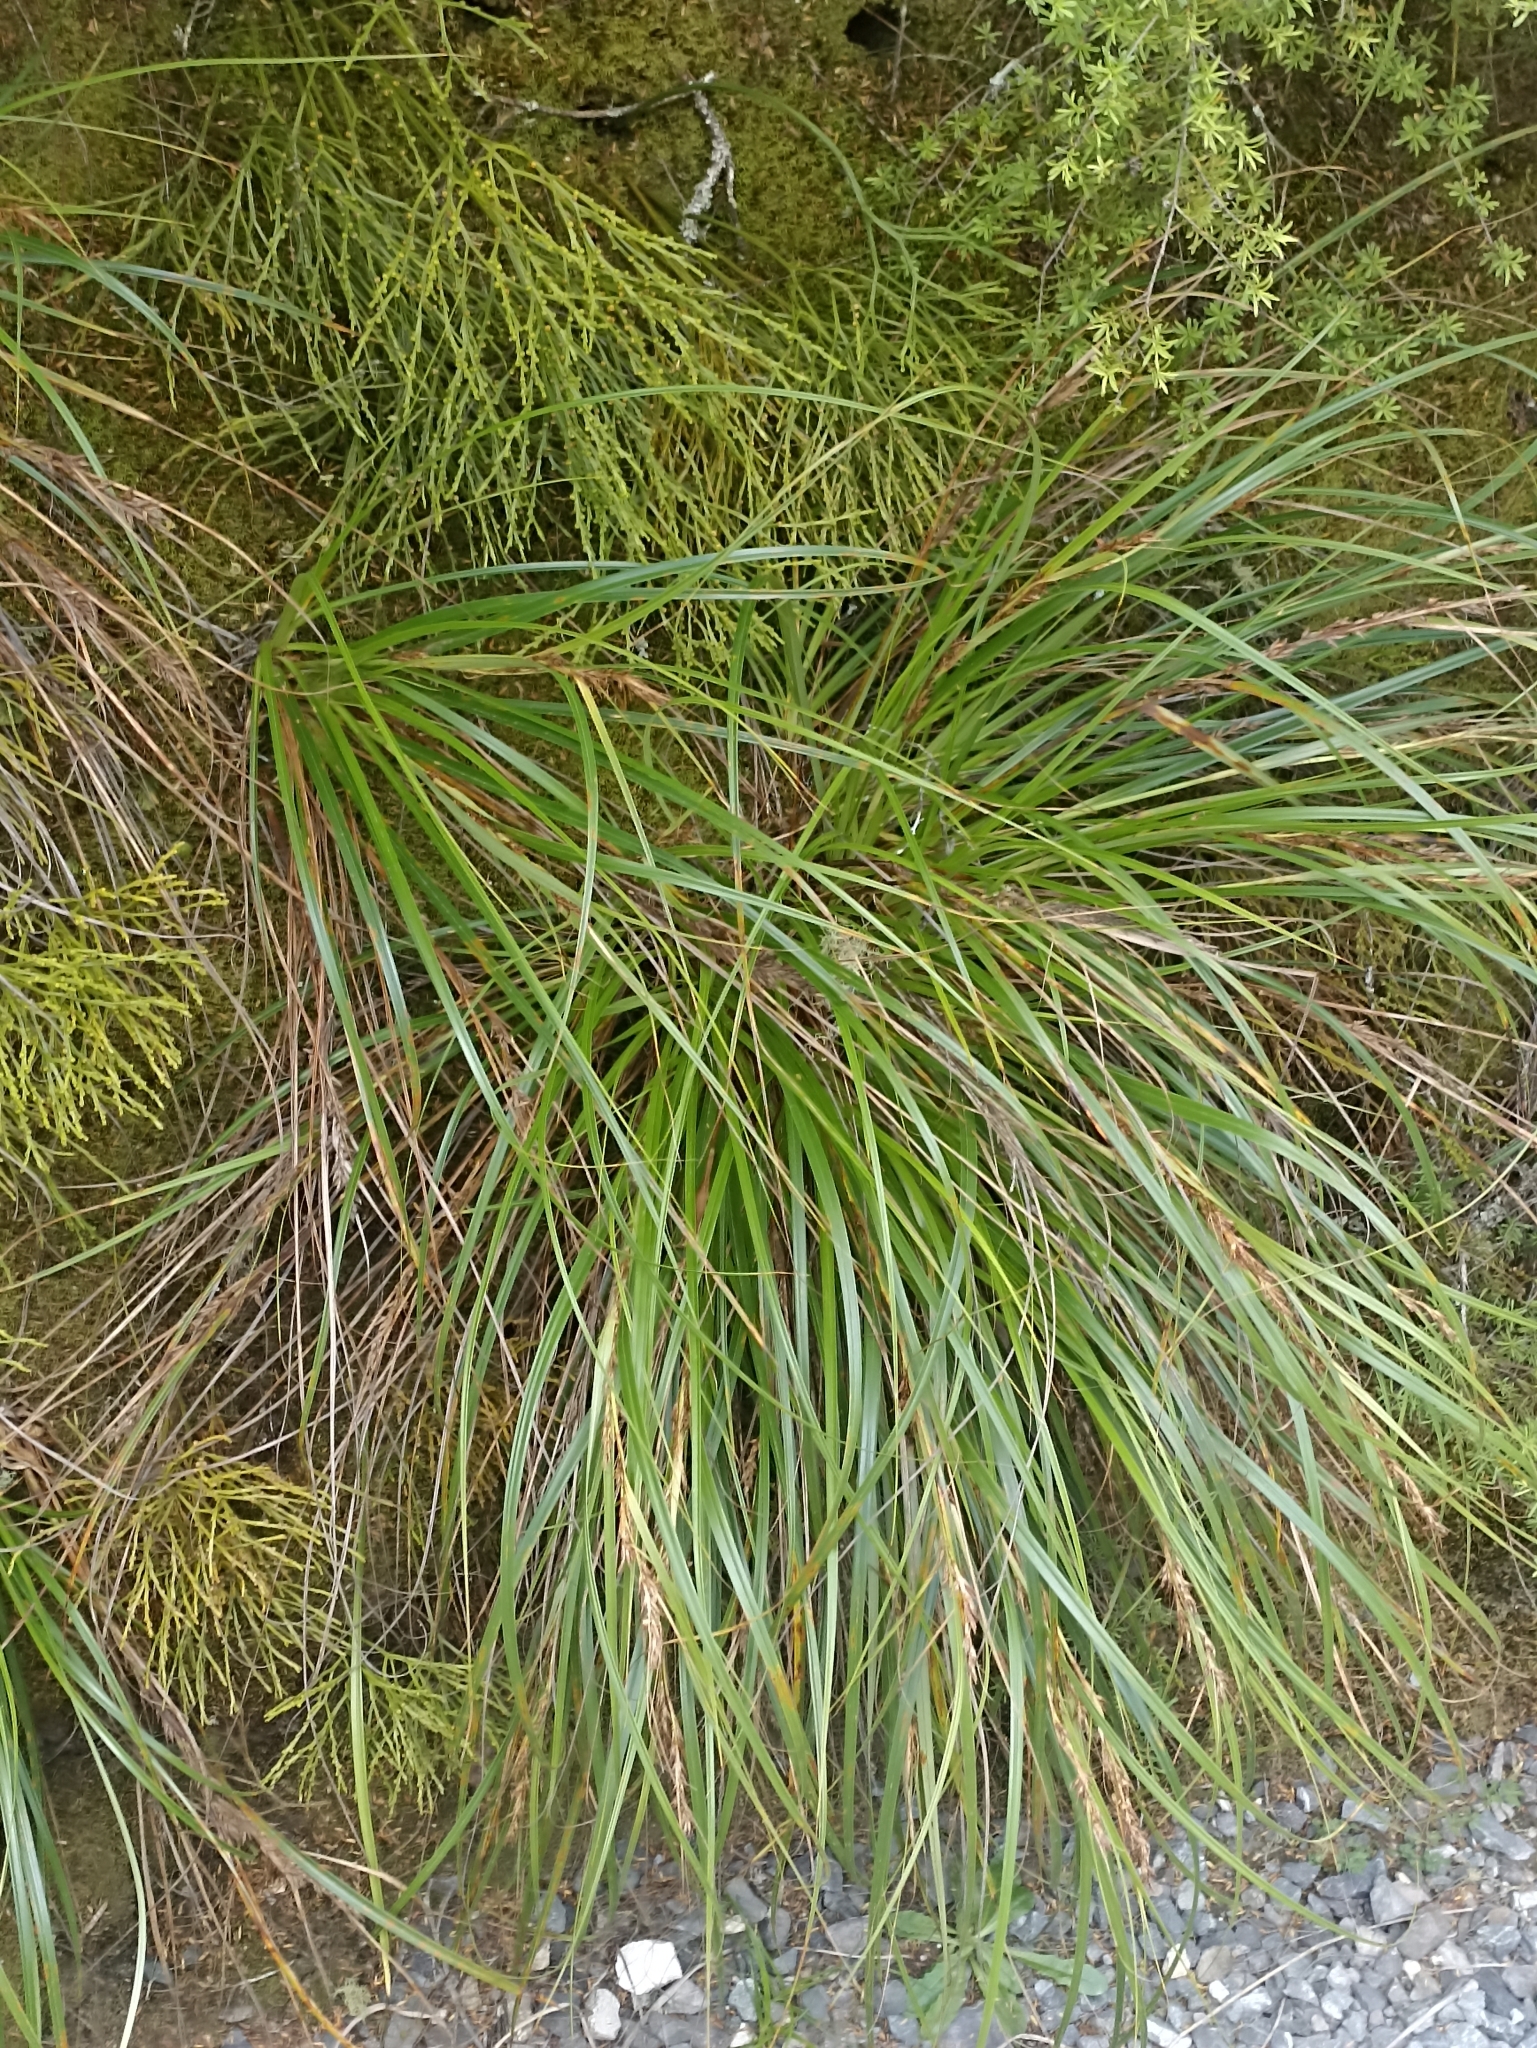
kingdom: Plantae
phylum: Tracheophyta
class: Liliopsida
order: Poales
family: Cyperaceae
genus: Morelotia
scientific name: Morelotia affinis
